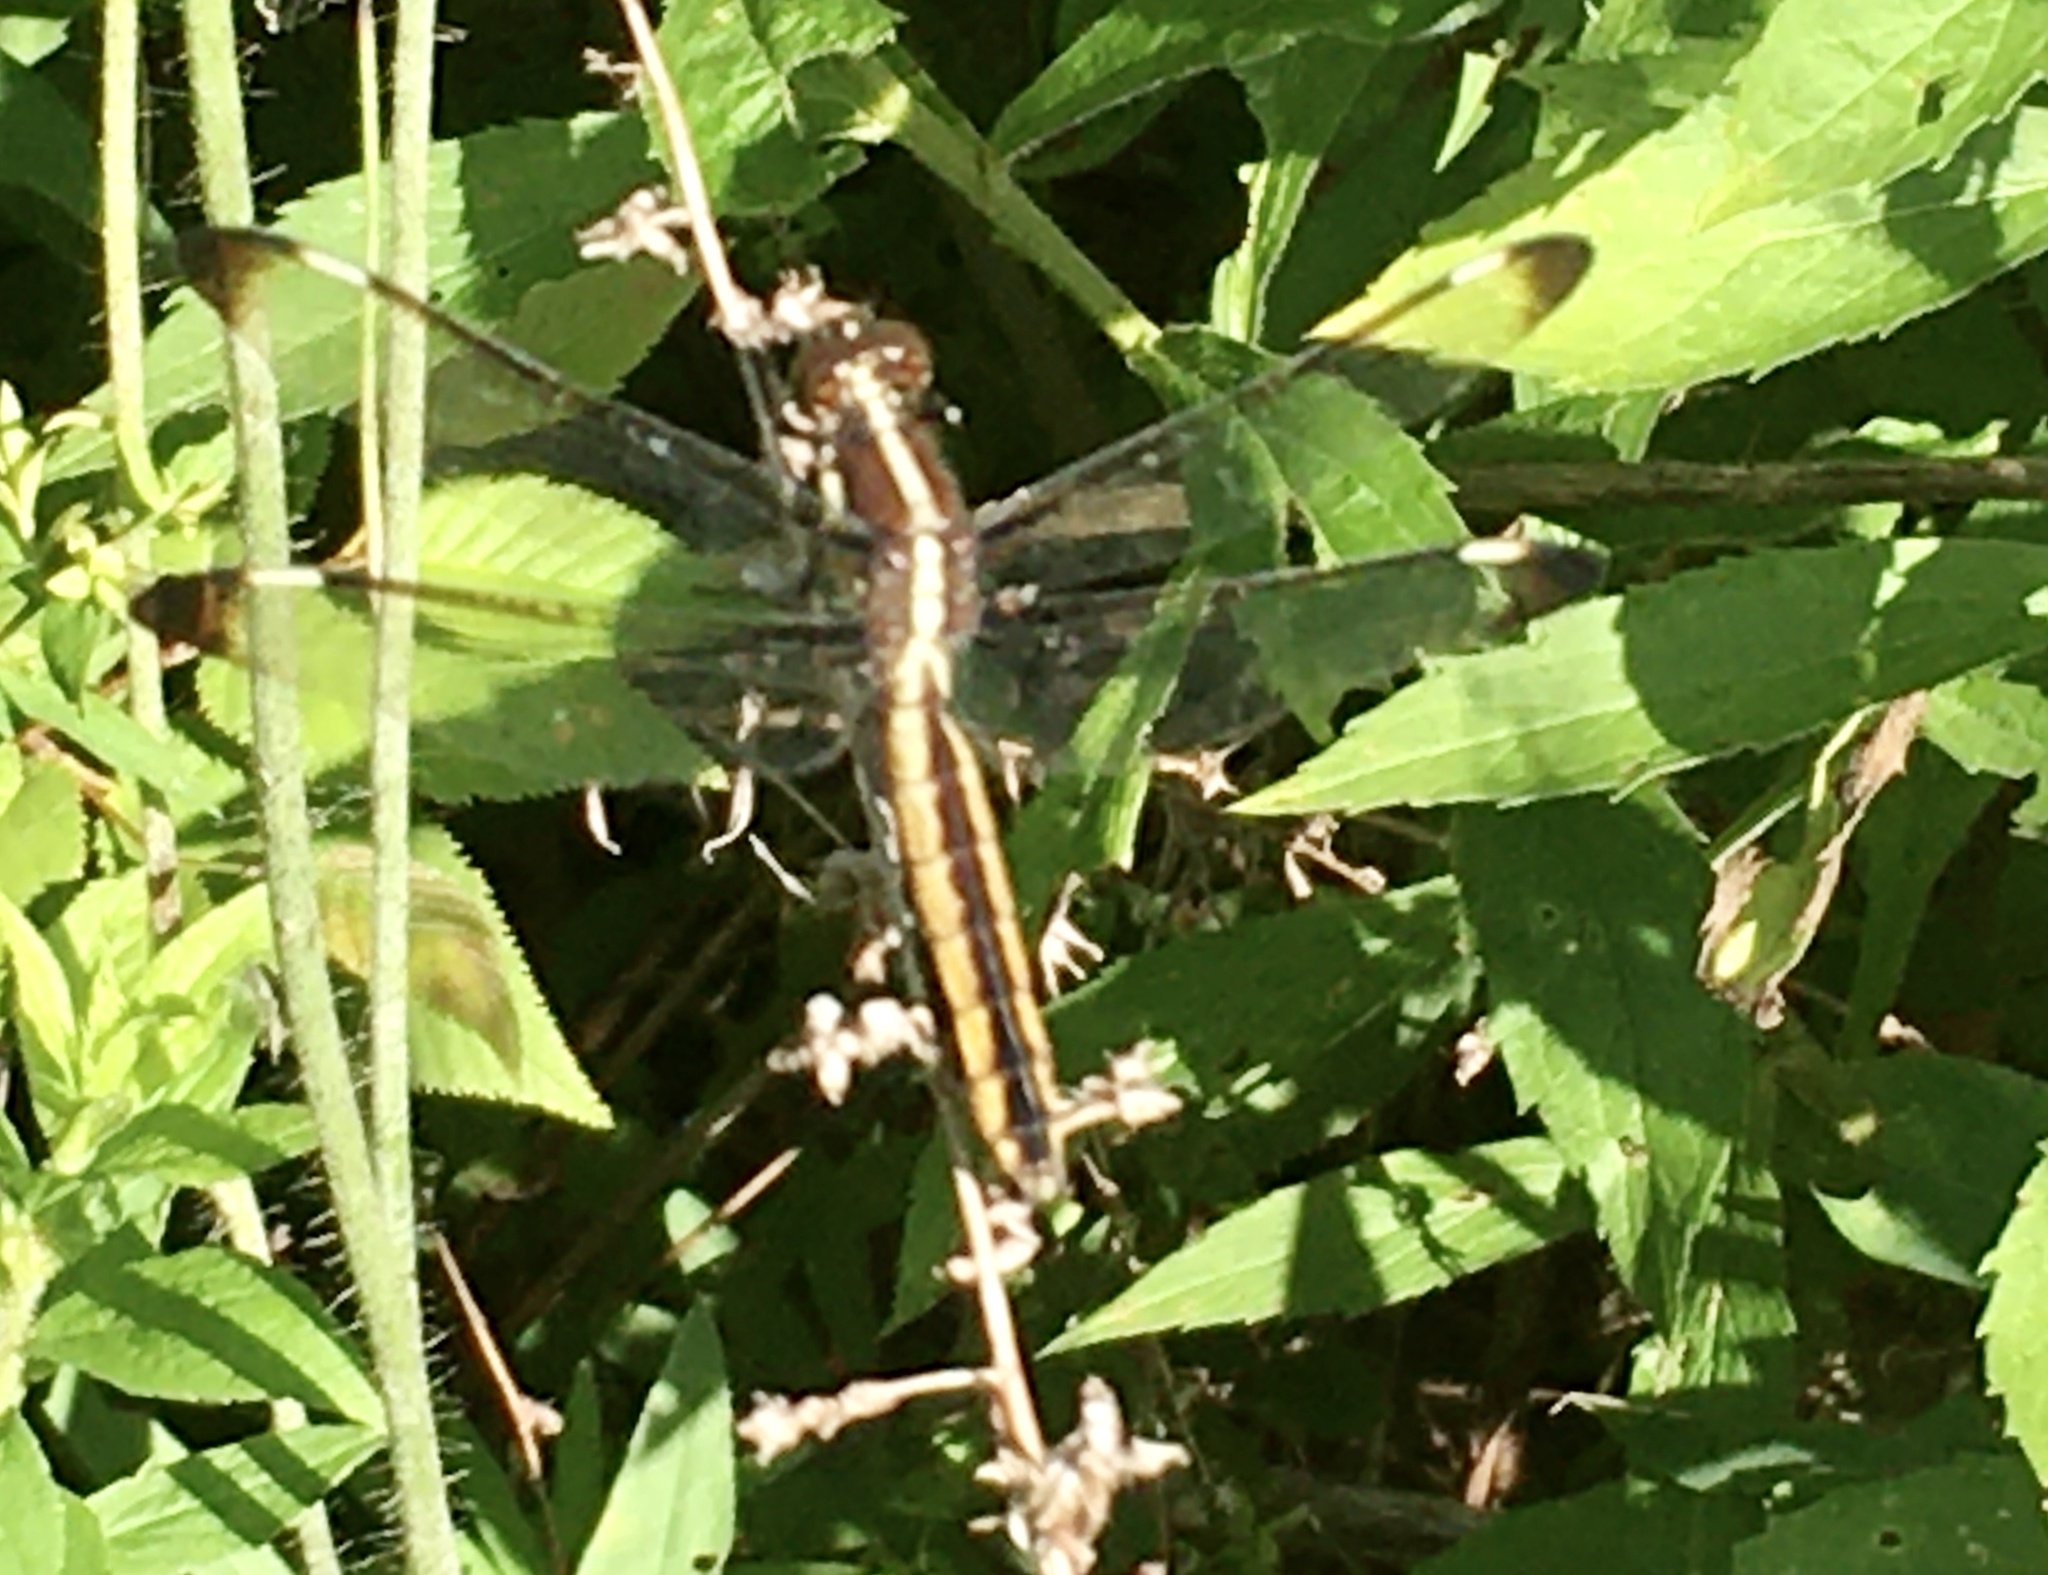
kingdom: Animalia
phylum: Arthropoda
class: Insecta
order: Odonata
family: Libellulidae
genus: Libellula
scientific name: Libellula cyanea
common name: Spangled skimmer
